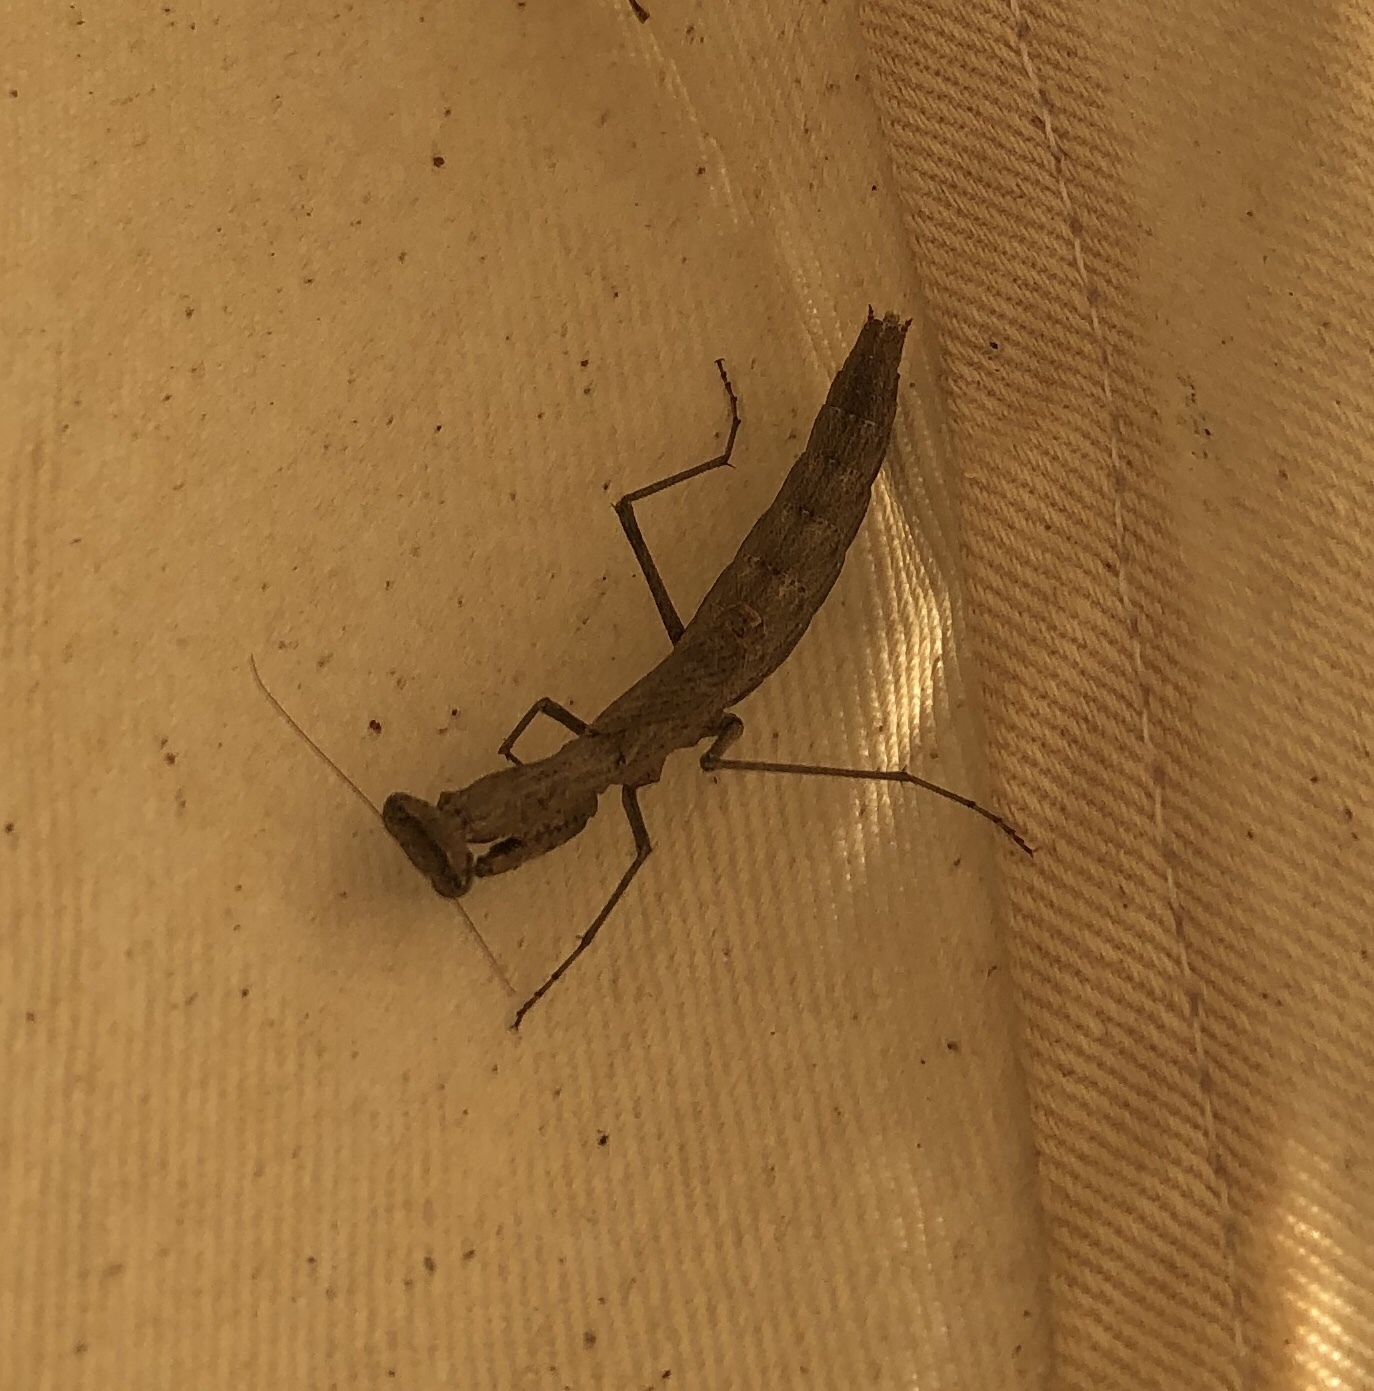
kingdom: Animalia
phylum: Arthropoda
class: Insecta
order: Mantodea
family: Amelidae
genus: Litaneutria
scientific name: Litaneutria minor
